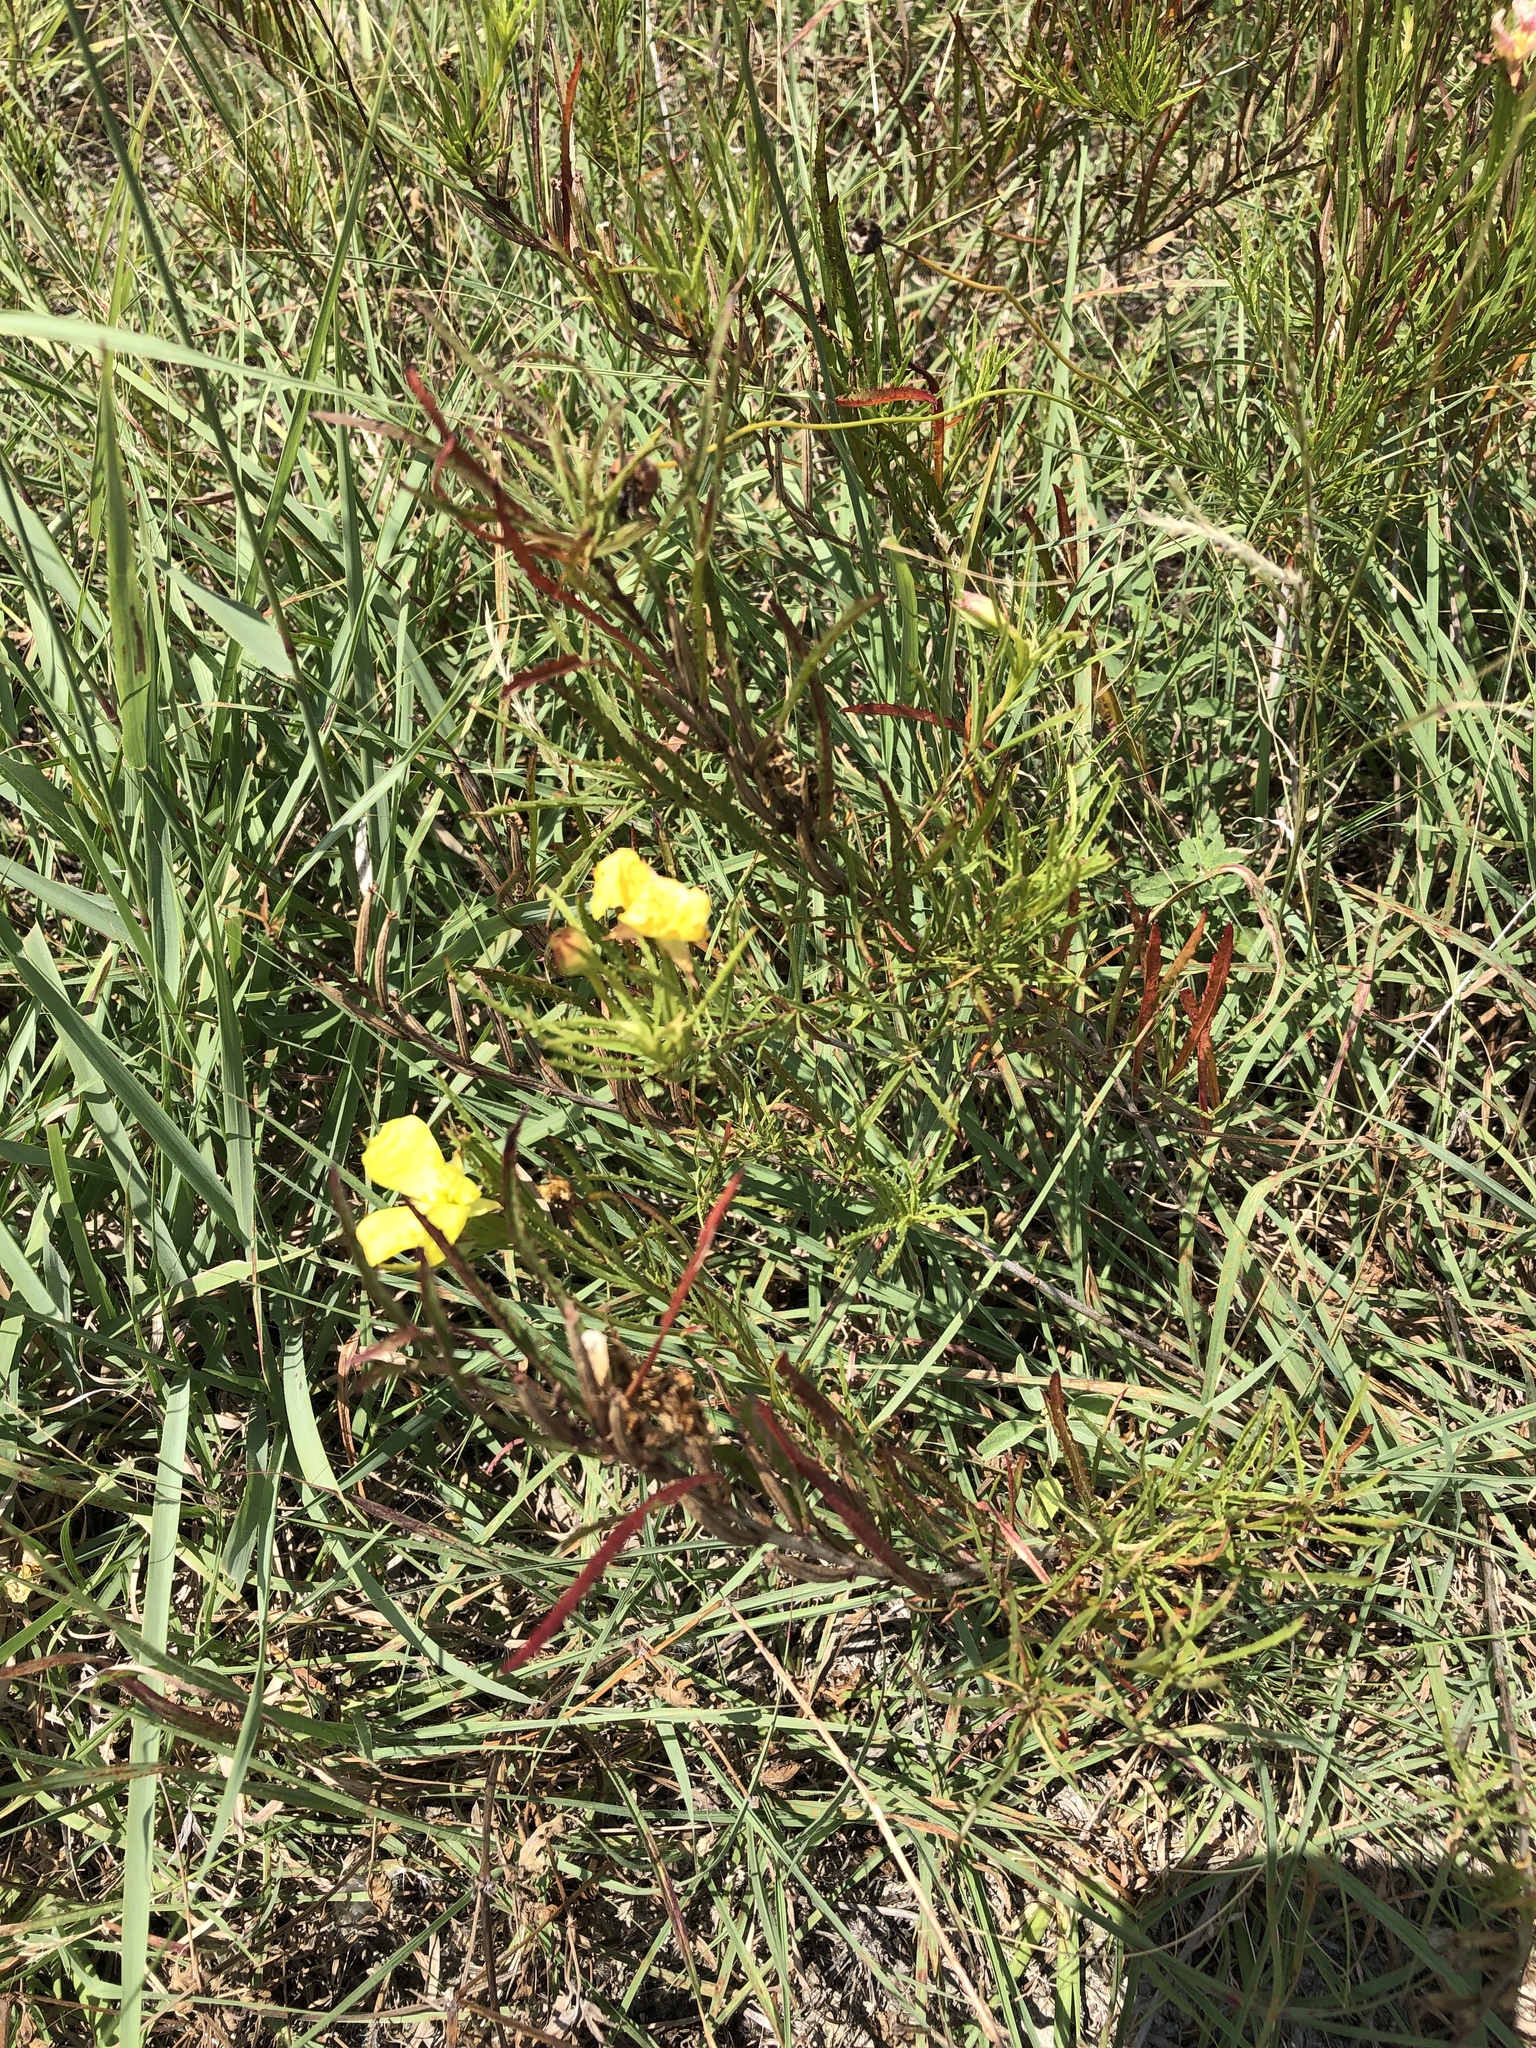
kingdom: Plantae
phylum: Tracheophyta
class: Magnoliopsida
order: Myrtales
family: Onagraceae
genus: Oenothera
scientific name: Oenothera
